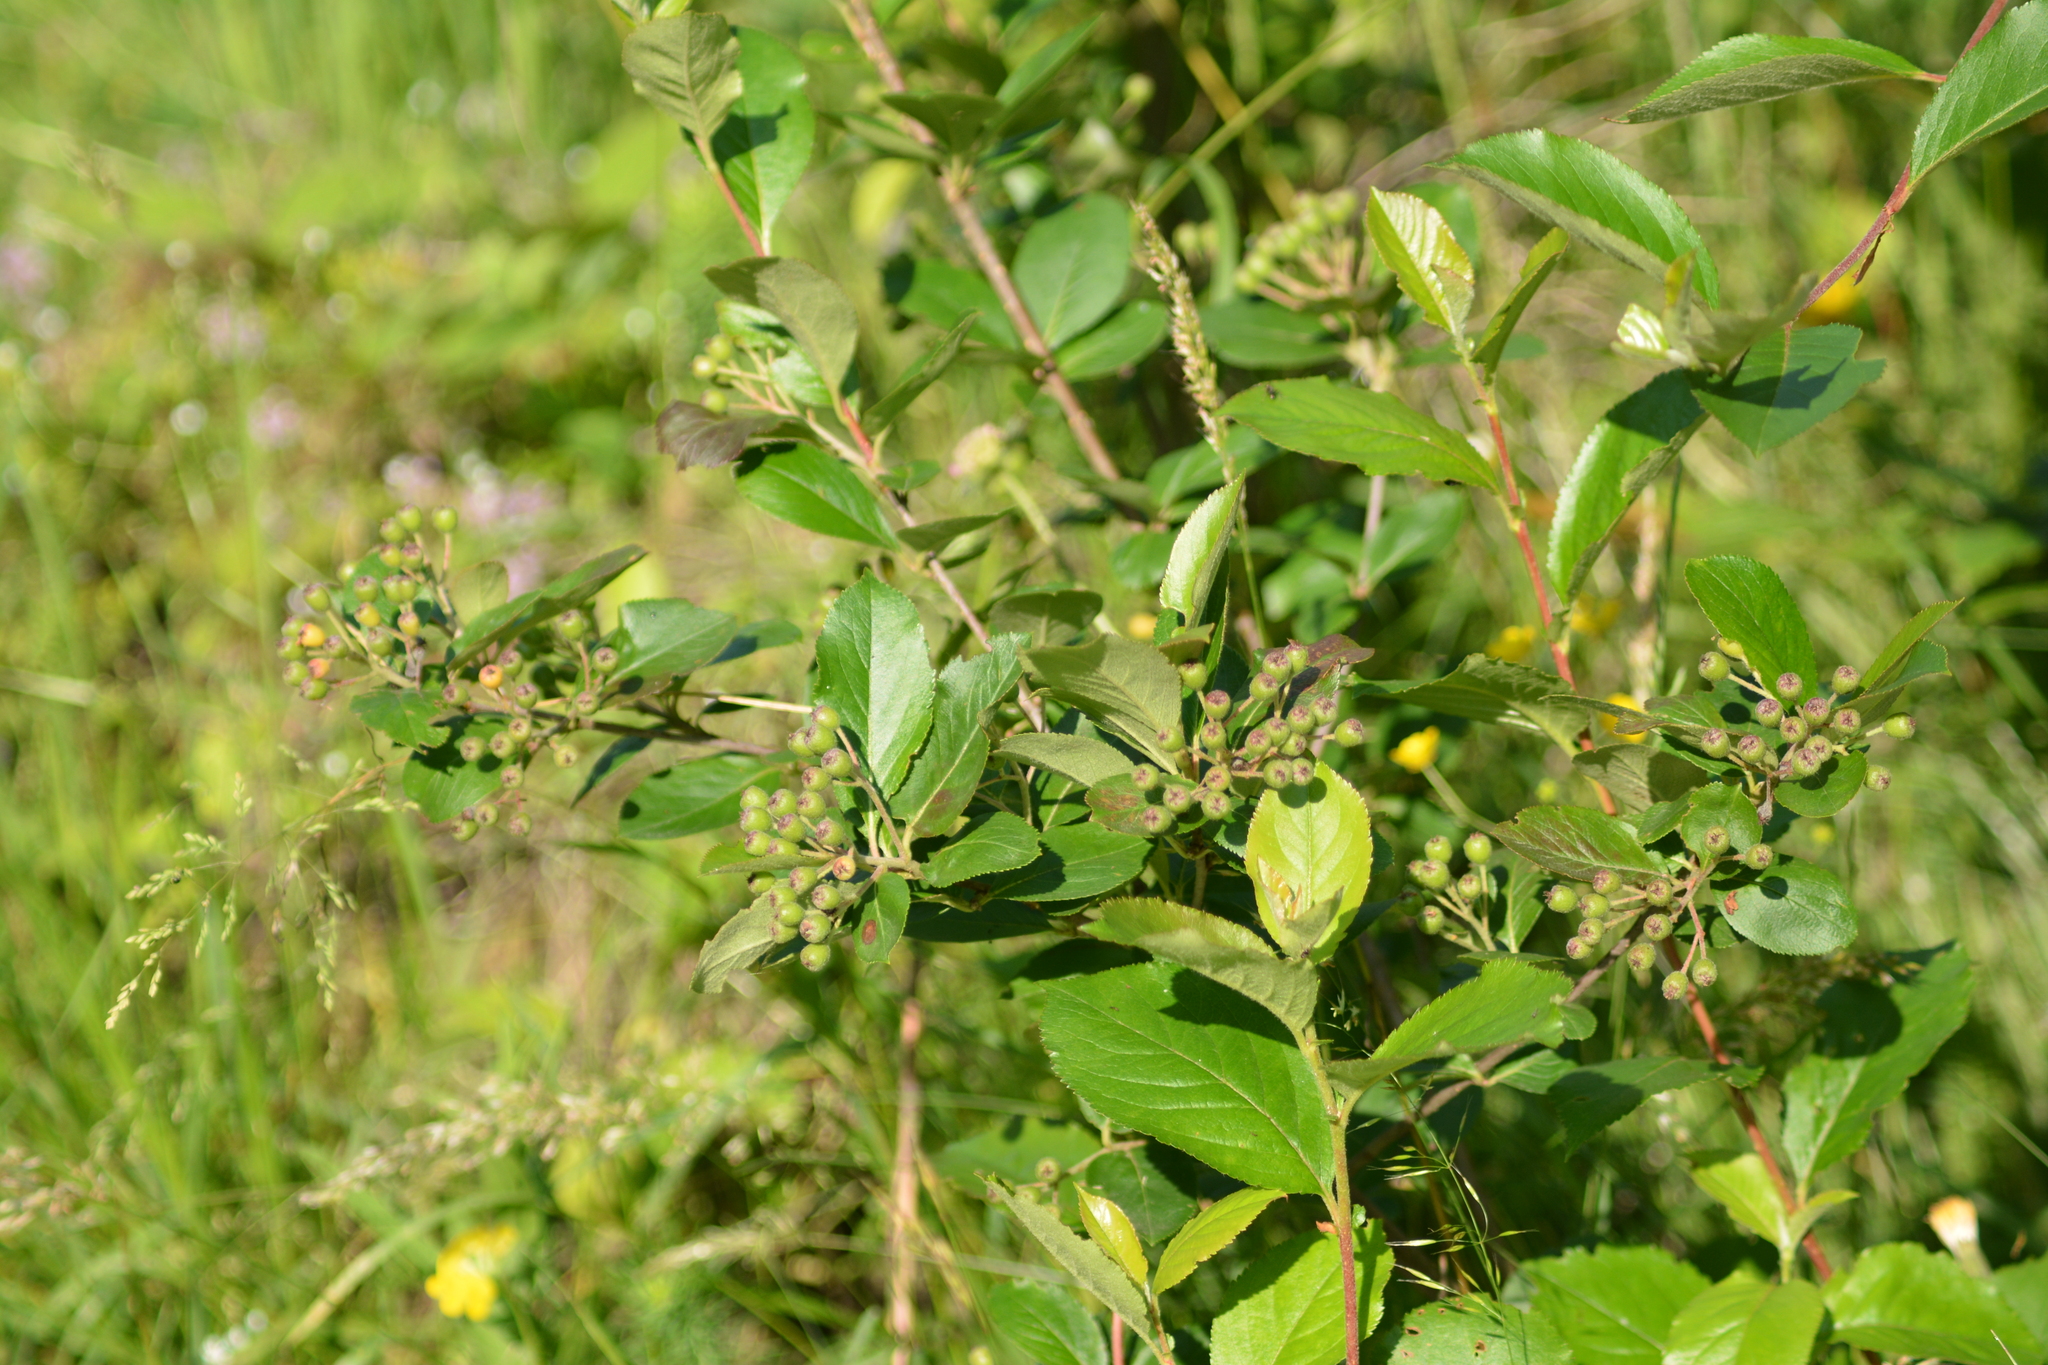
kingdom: Plantae
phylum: Tracheophyta
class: Magnoliopsida
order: Rosales
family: Rosaceae
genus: Sorbaronia
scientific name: Sorbaronia arsenii
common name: Arsène's mountain-ash
